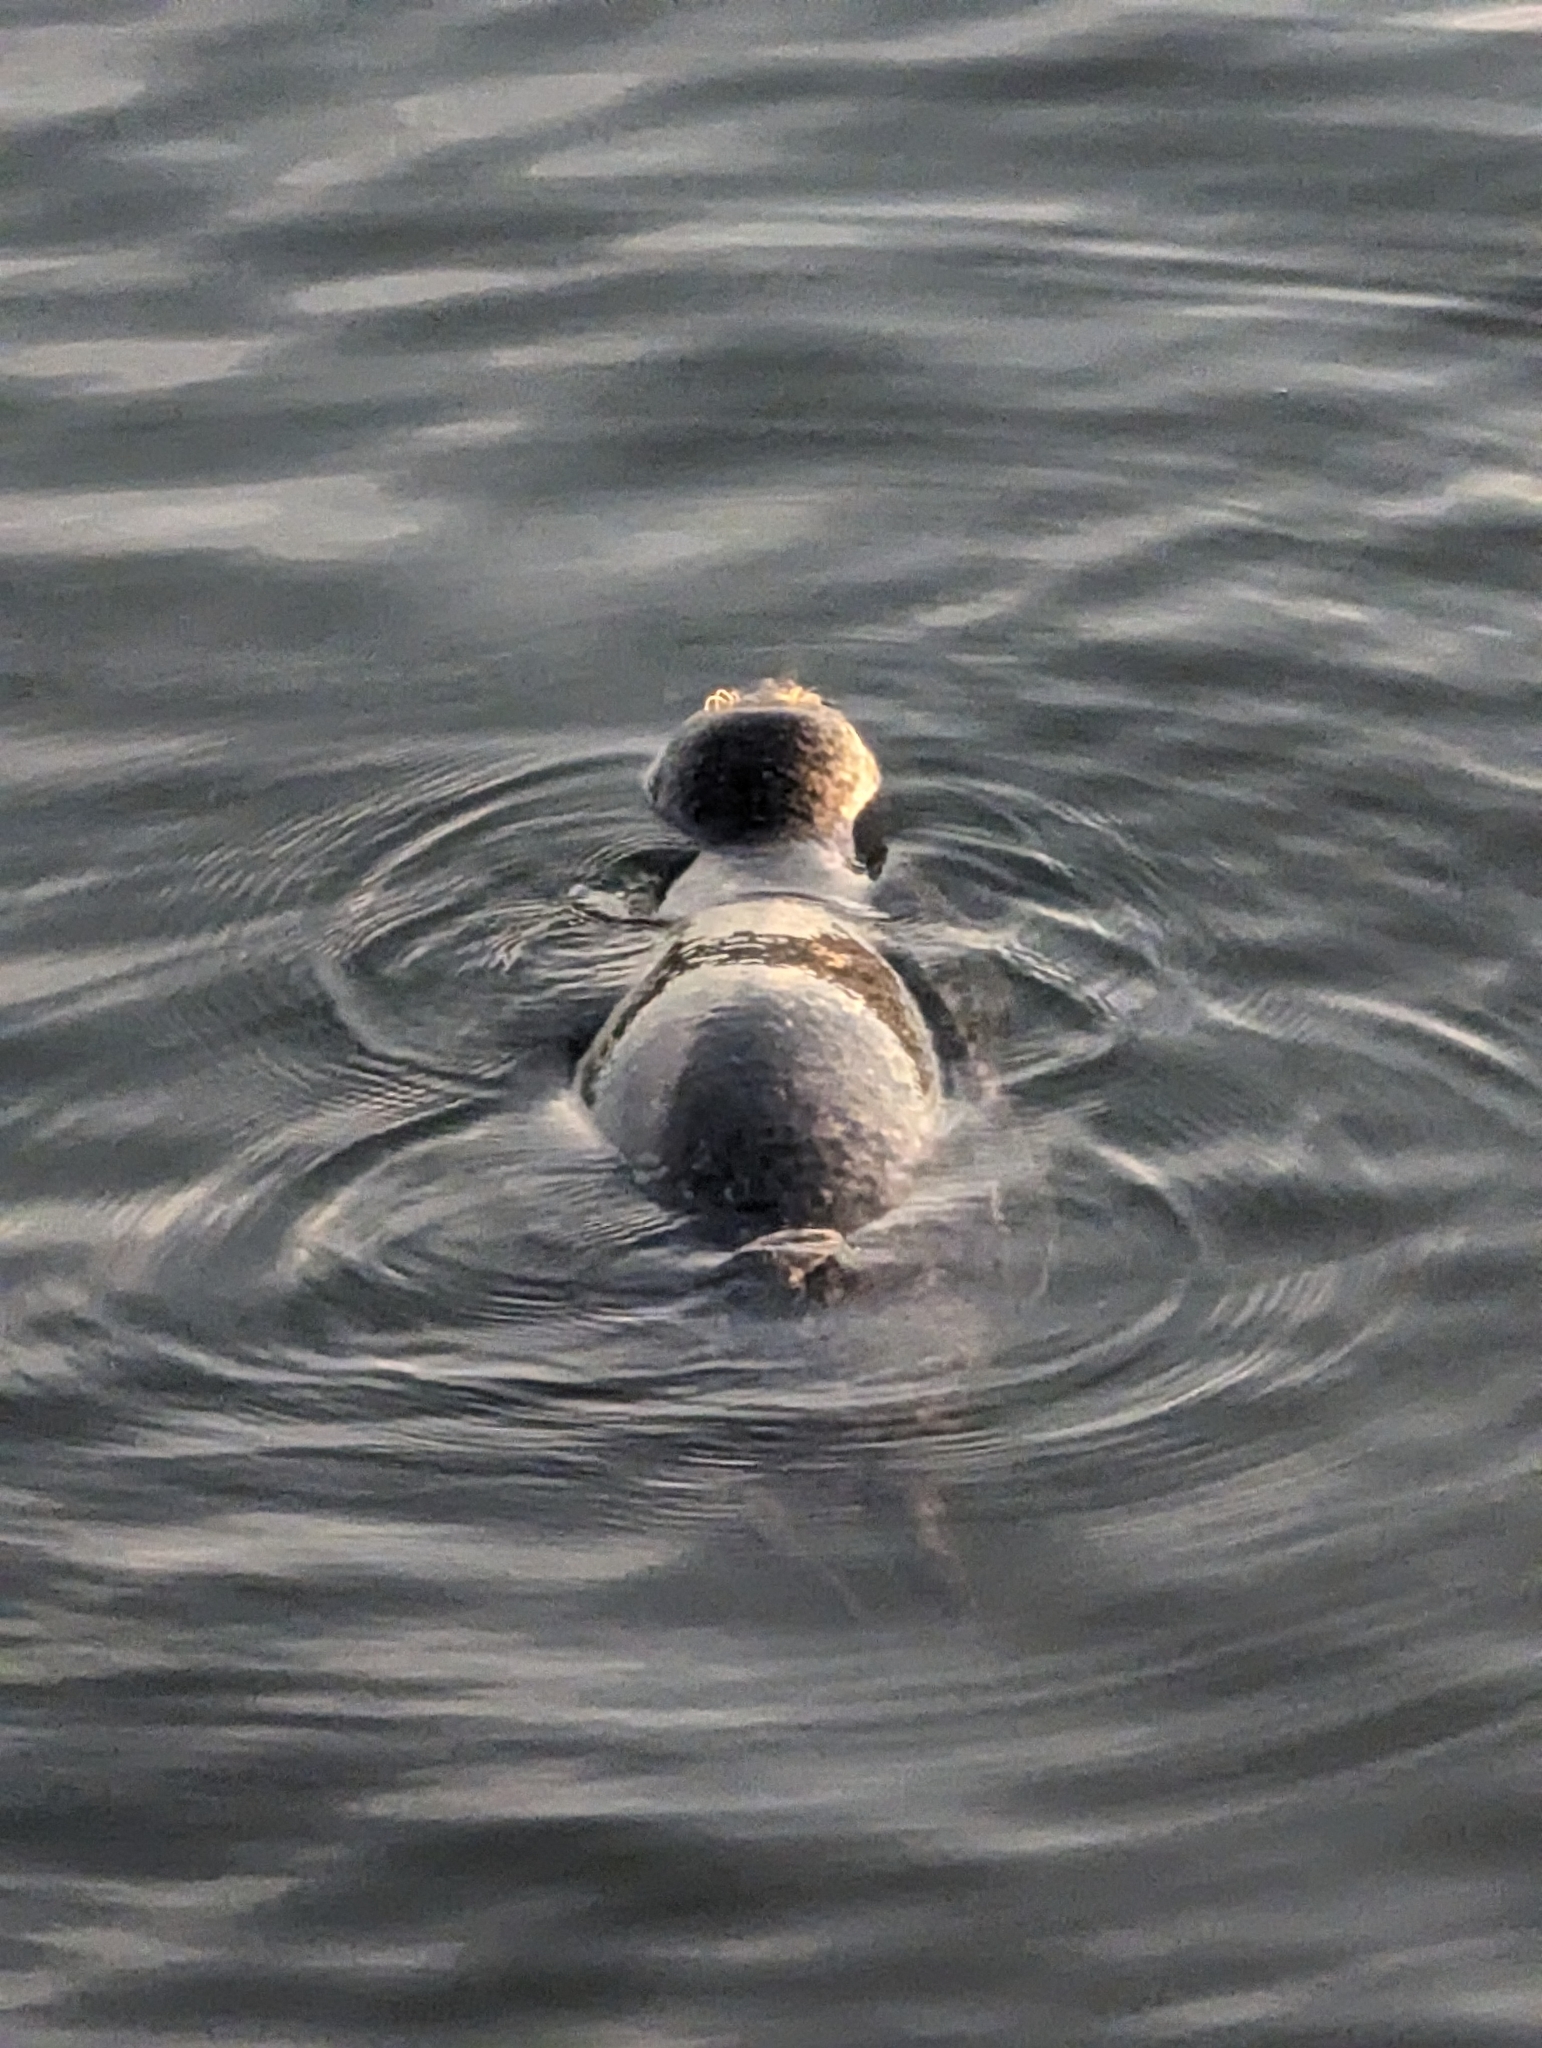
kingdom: Animalia
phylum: Chordata
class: Mammalia
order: Carnivora
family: Phocidae
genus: Phoca
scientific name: Phoca vitulina
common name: Harbor seal
